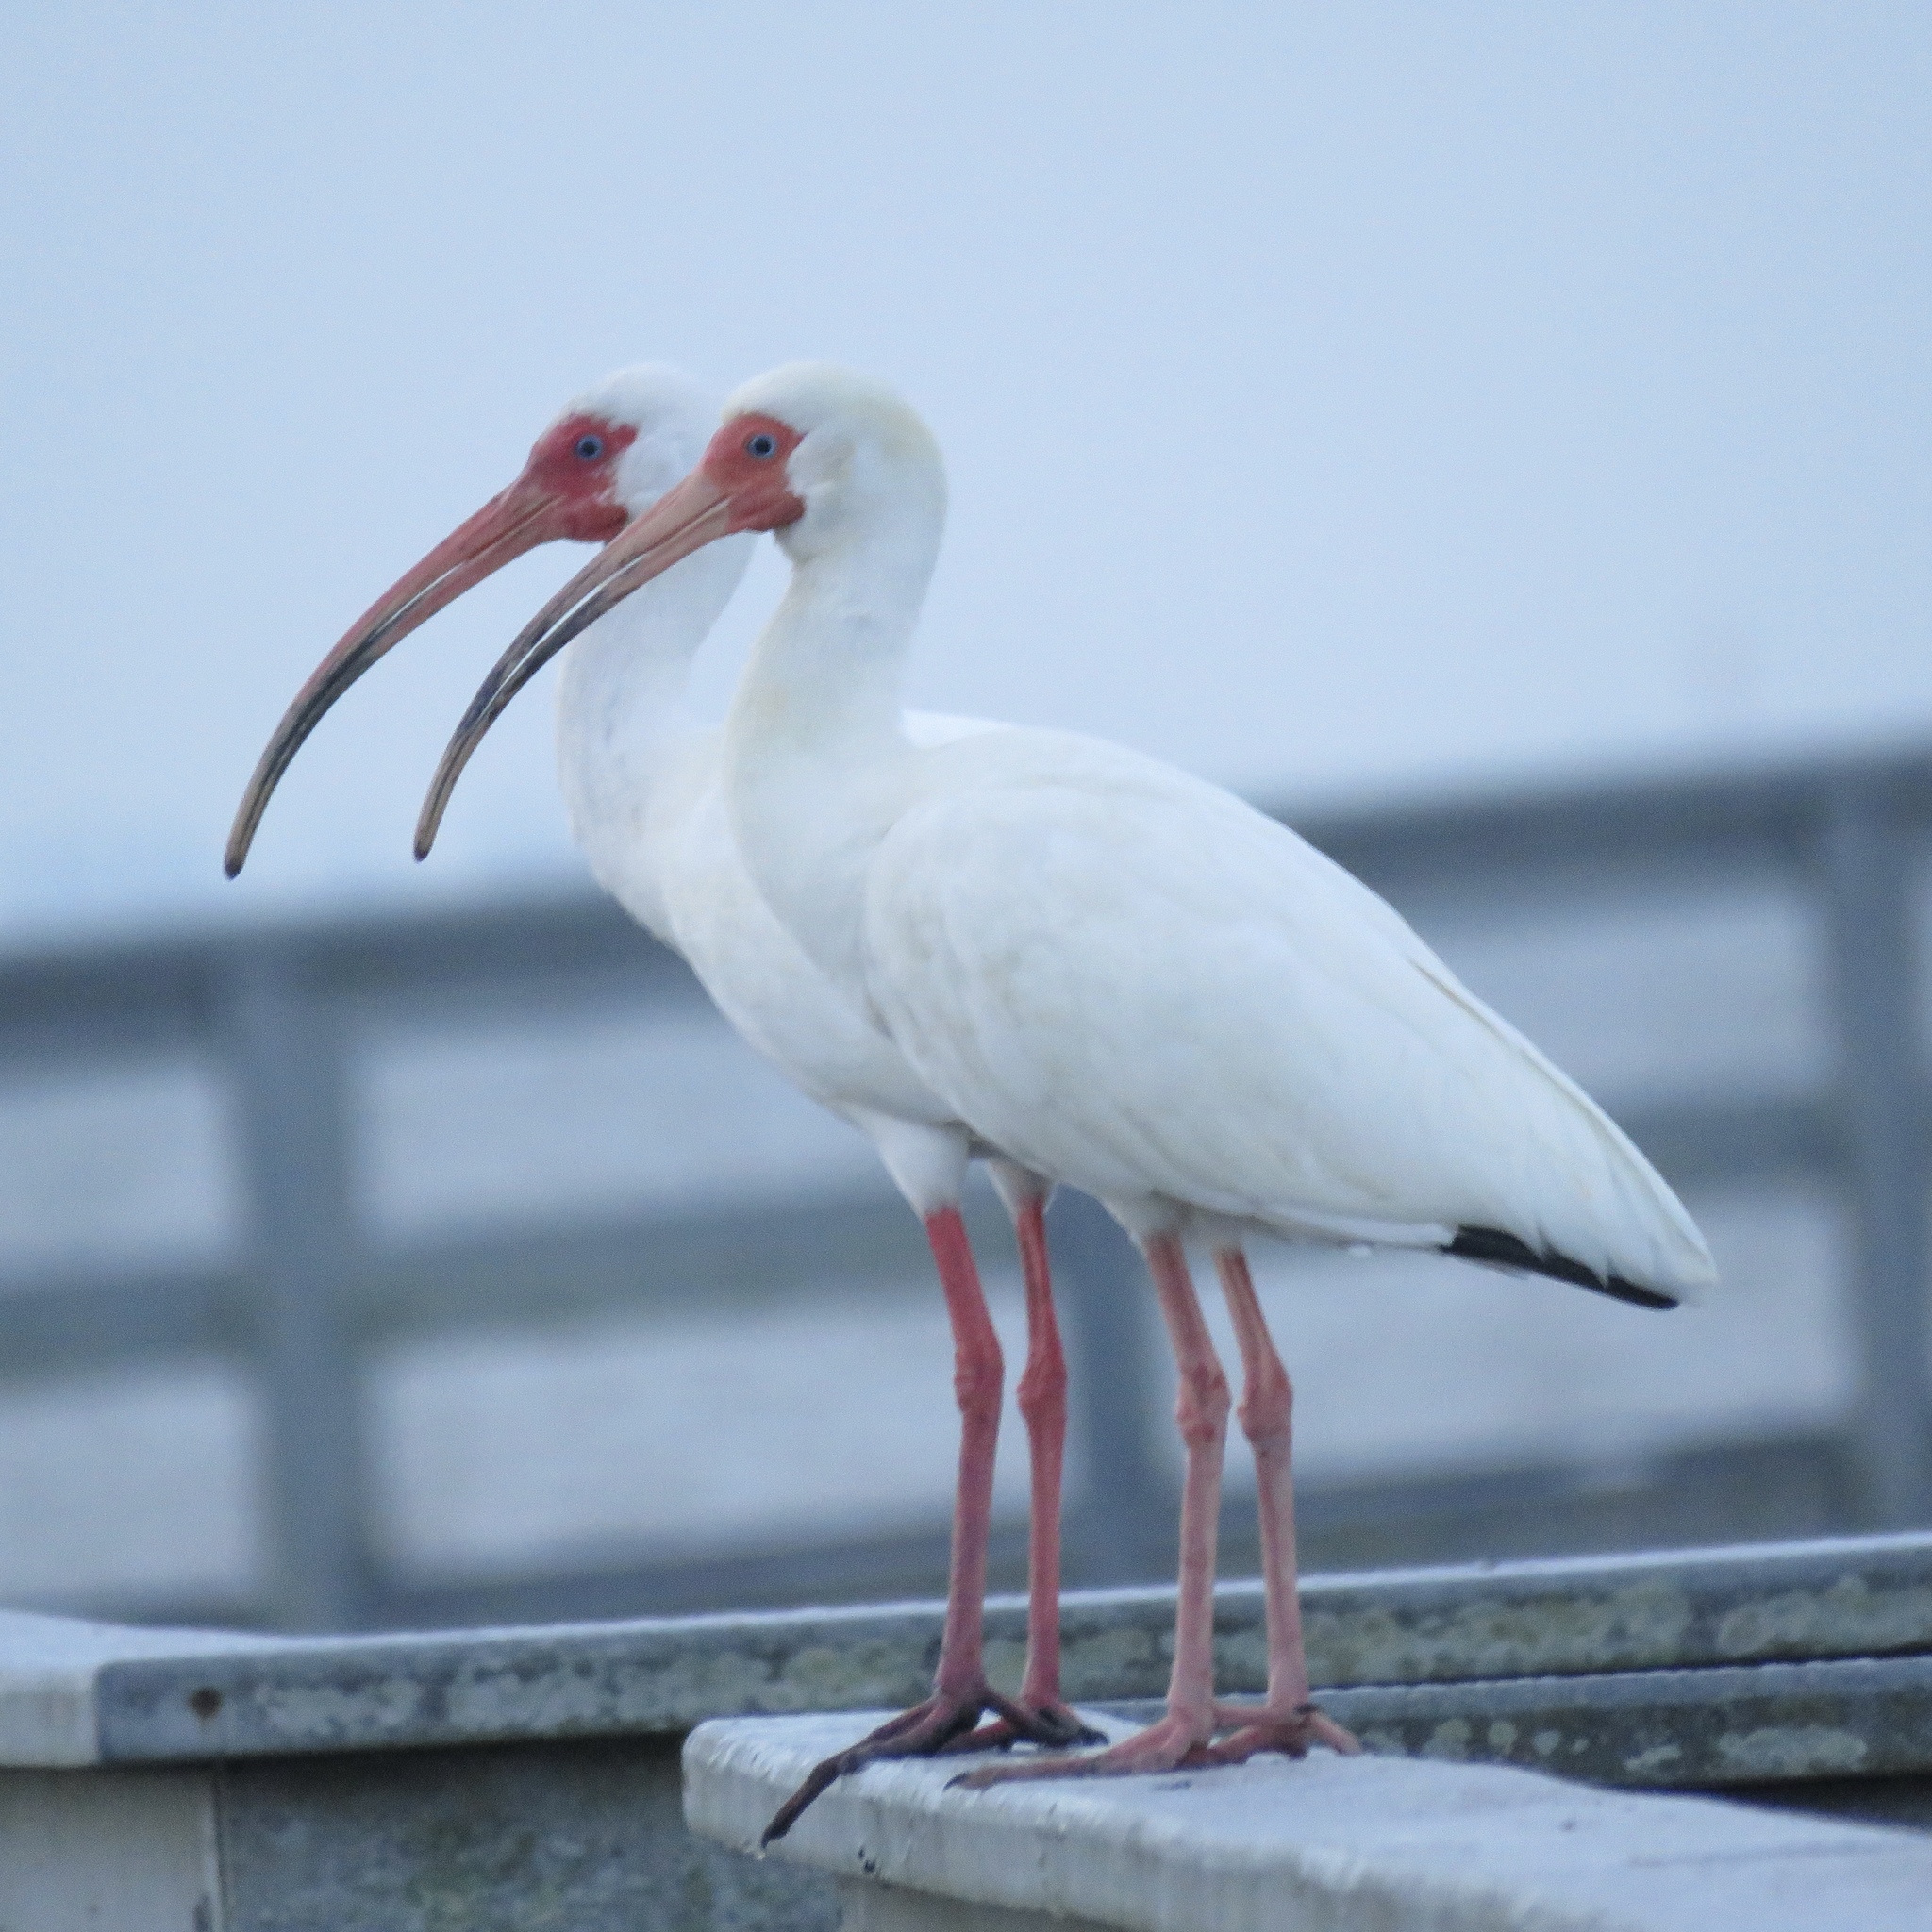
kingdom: Animalia
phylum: Chordata
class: Aves
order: Pelecaniformes
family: Threskiornithidae
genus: Eudocimus
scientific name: Eudocimus albus
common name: White ibis
